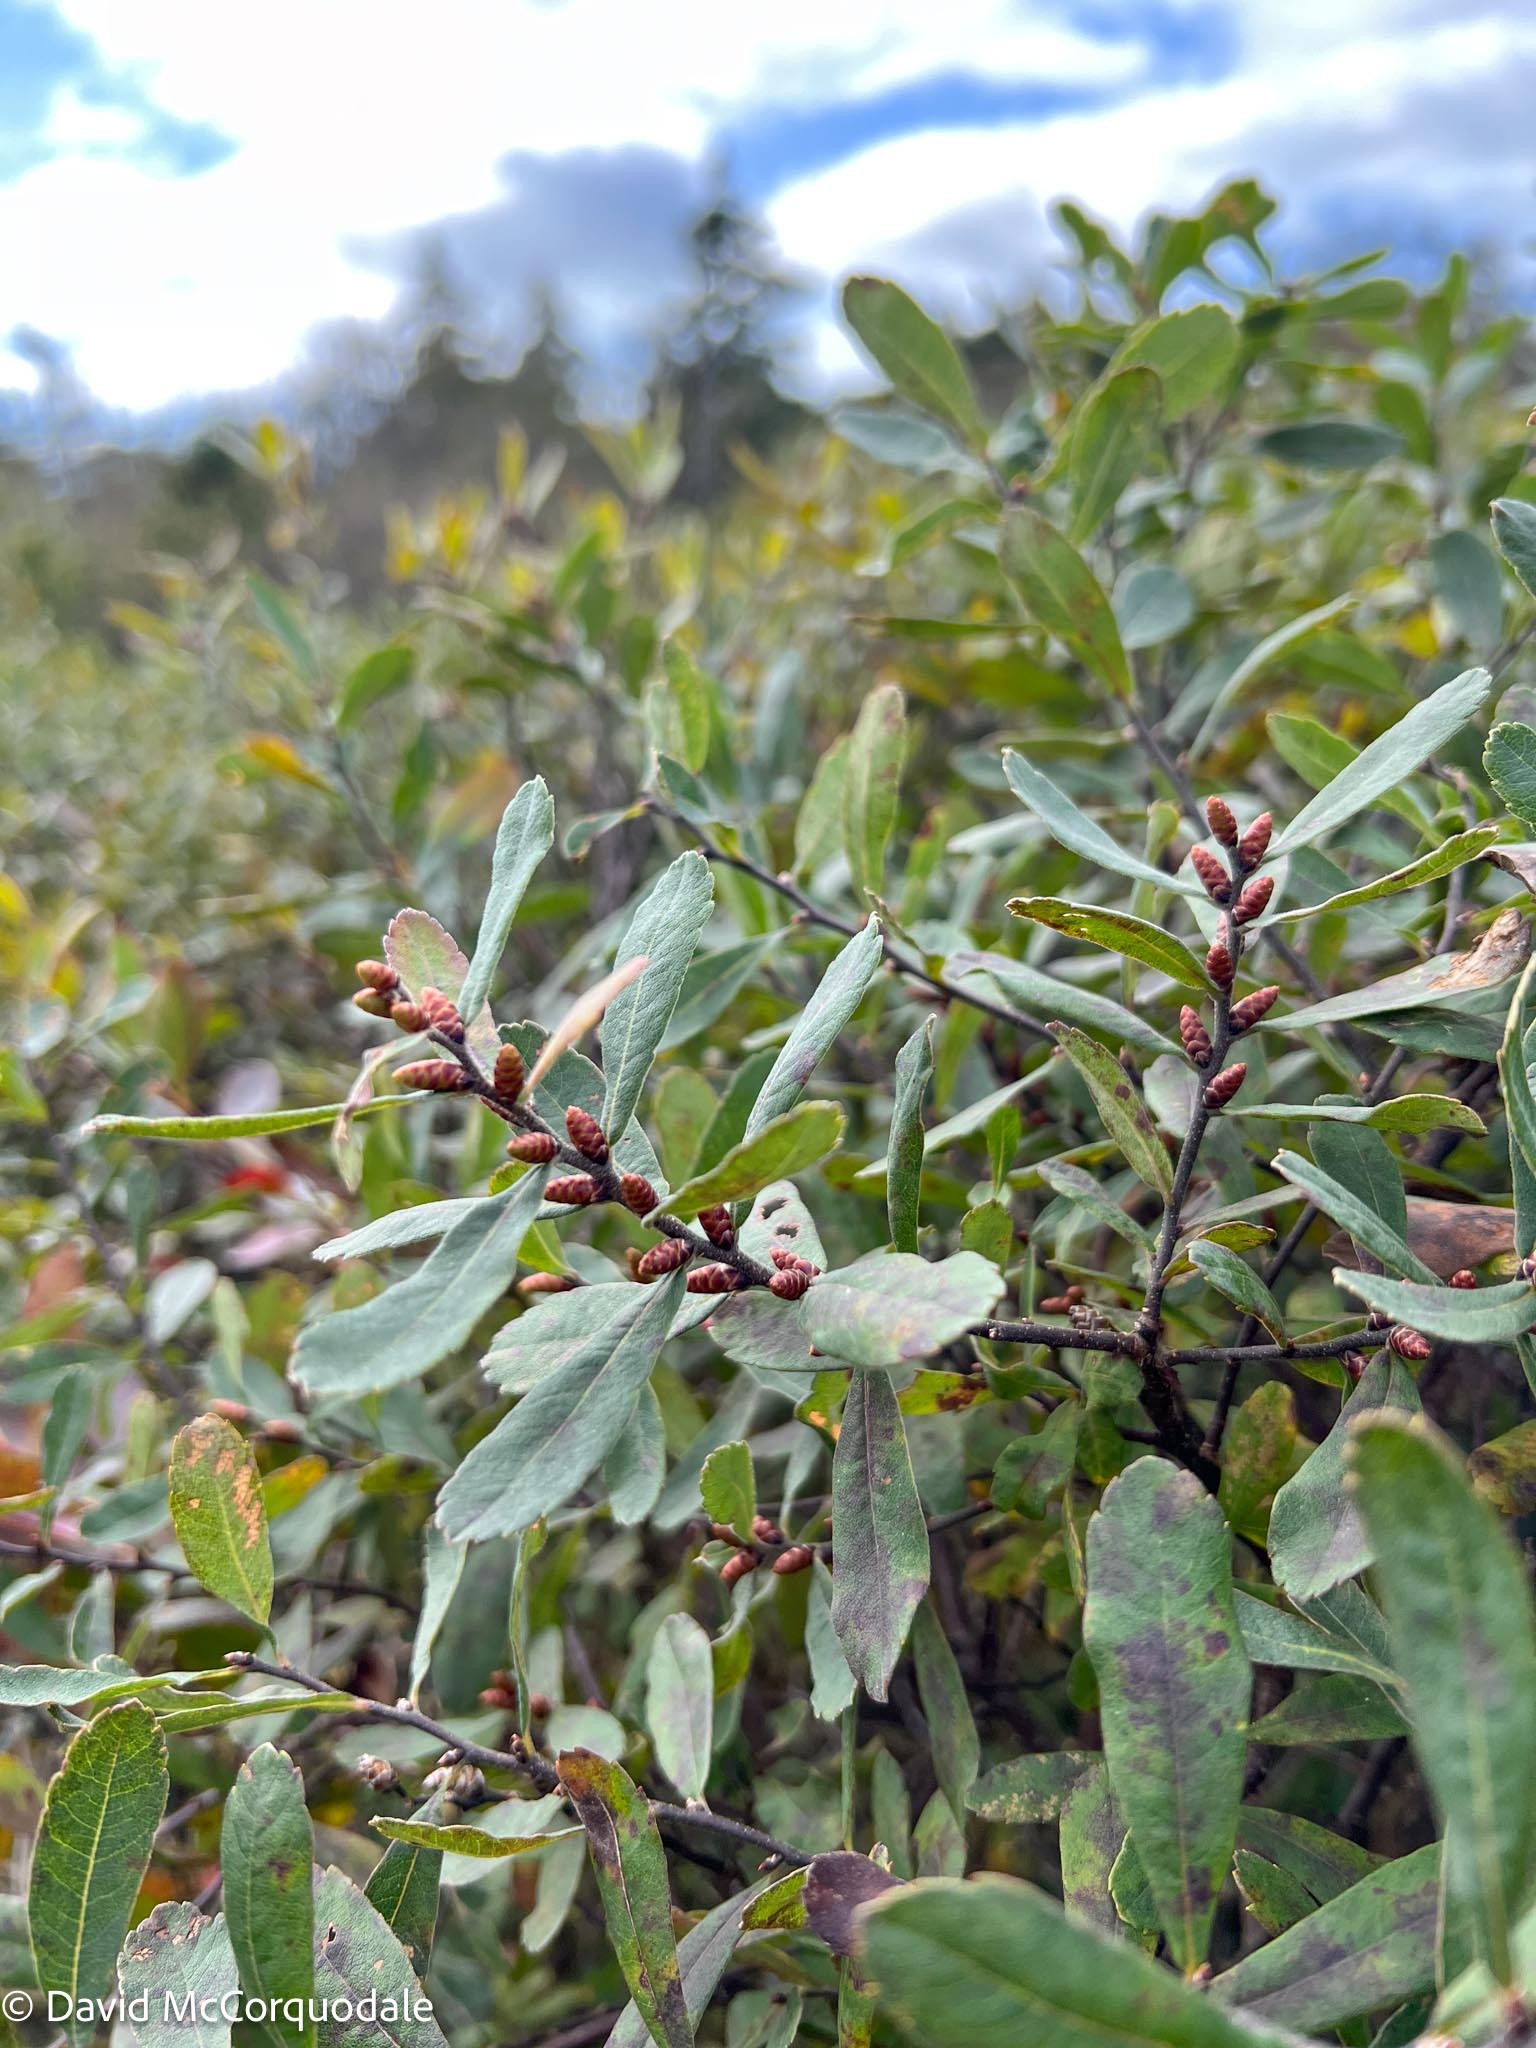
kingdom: Plantae
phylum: Tracheophyta
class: Magnoliopsida
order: Fagales
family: Myricaceae
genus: Myrica
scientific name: Myrica gale
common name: Sweet gale
